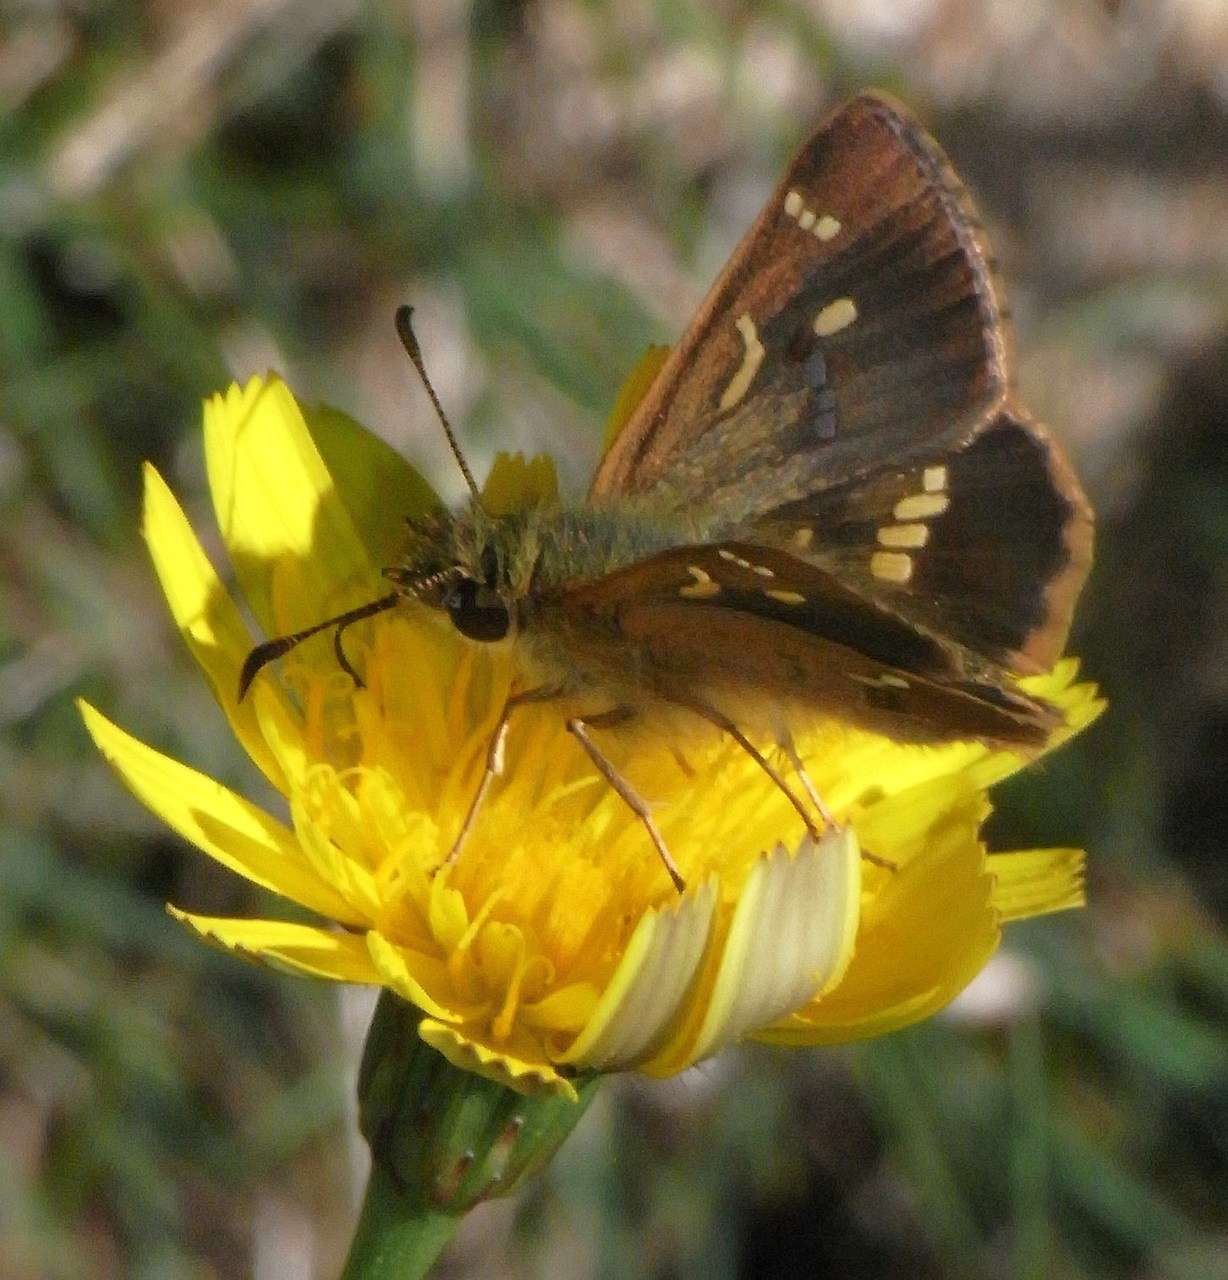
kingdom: Animalia
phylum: Arthropoda
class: Insecta
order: Lepidoptera
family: Hesperiidae
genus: Dispar
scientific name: Dispar compacta
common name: Barred skipper
